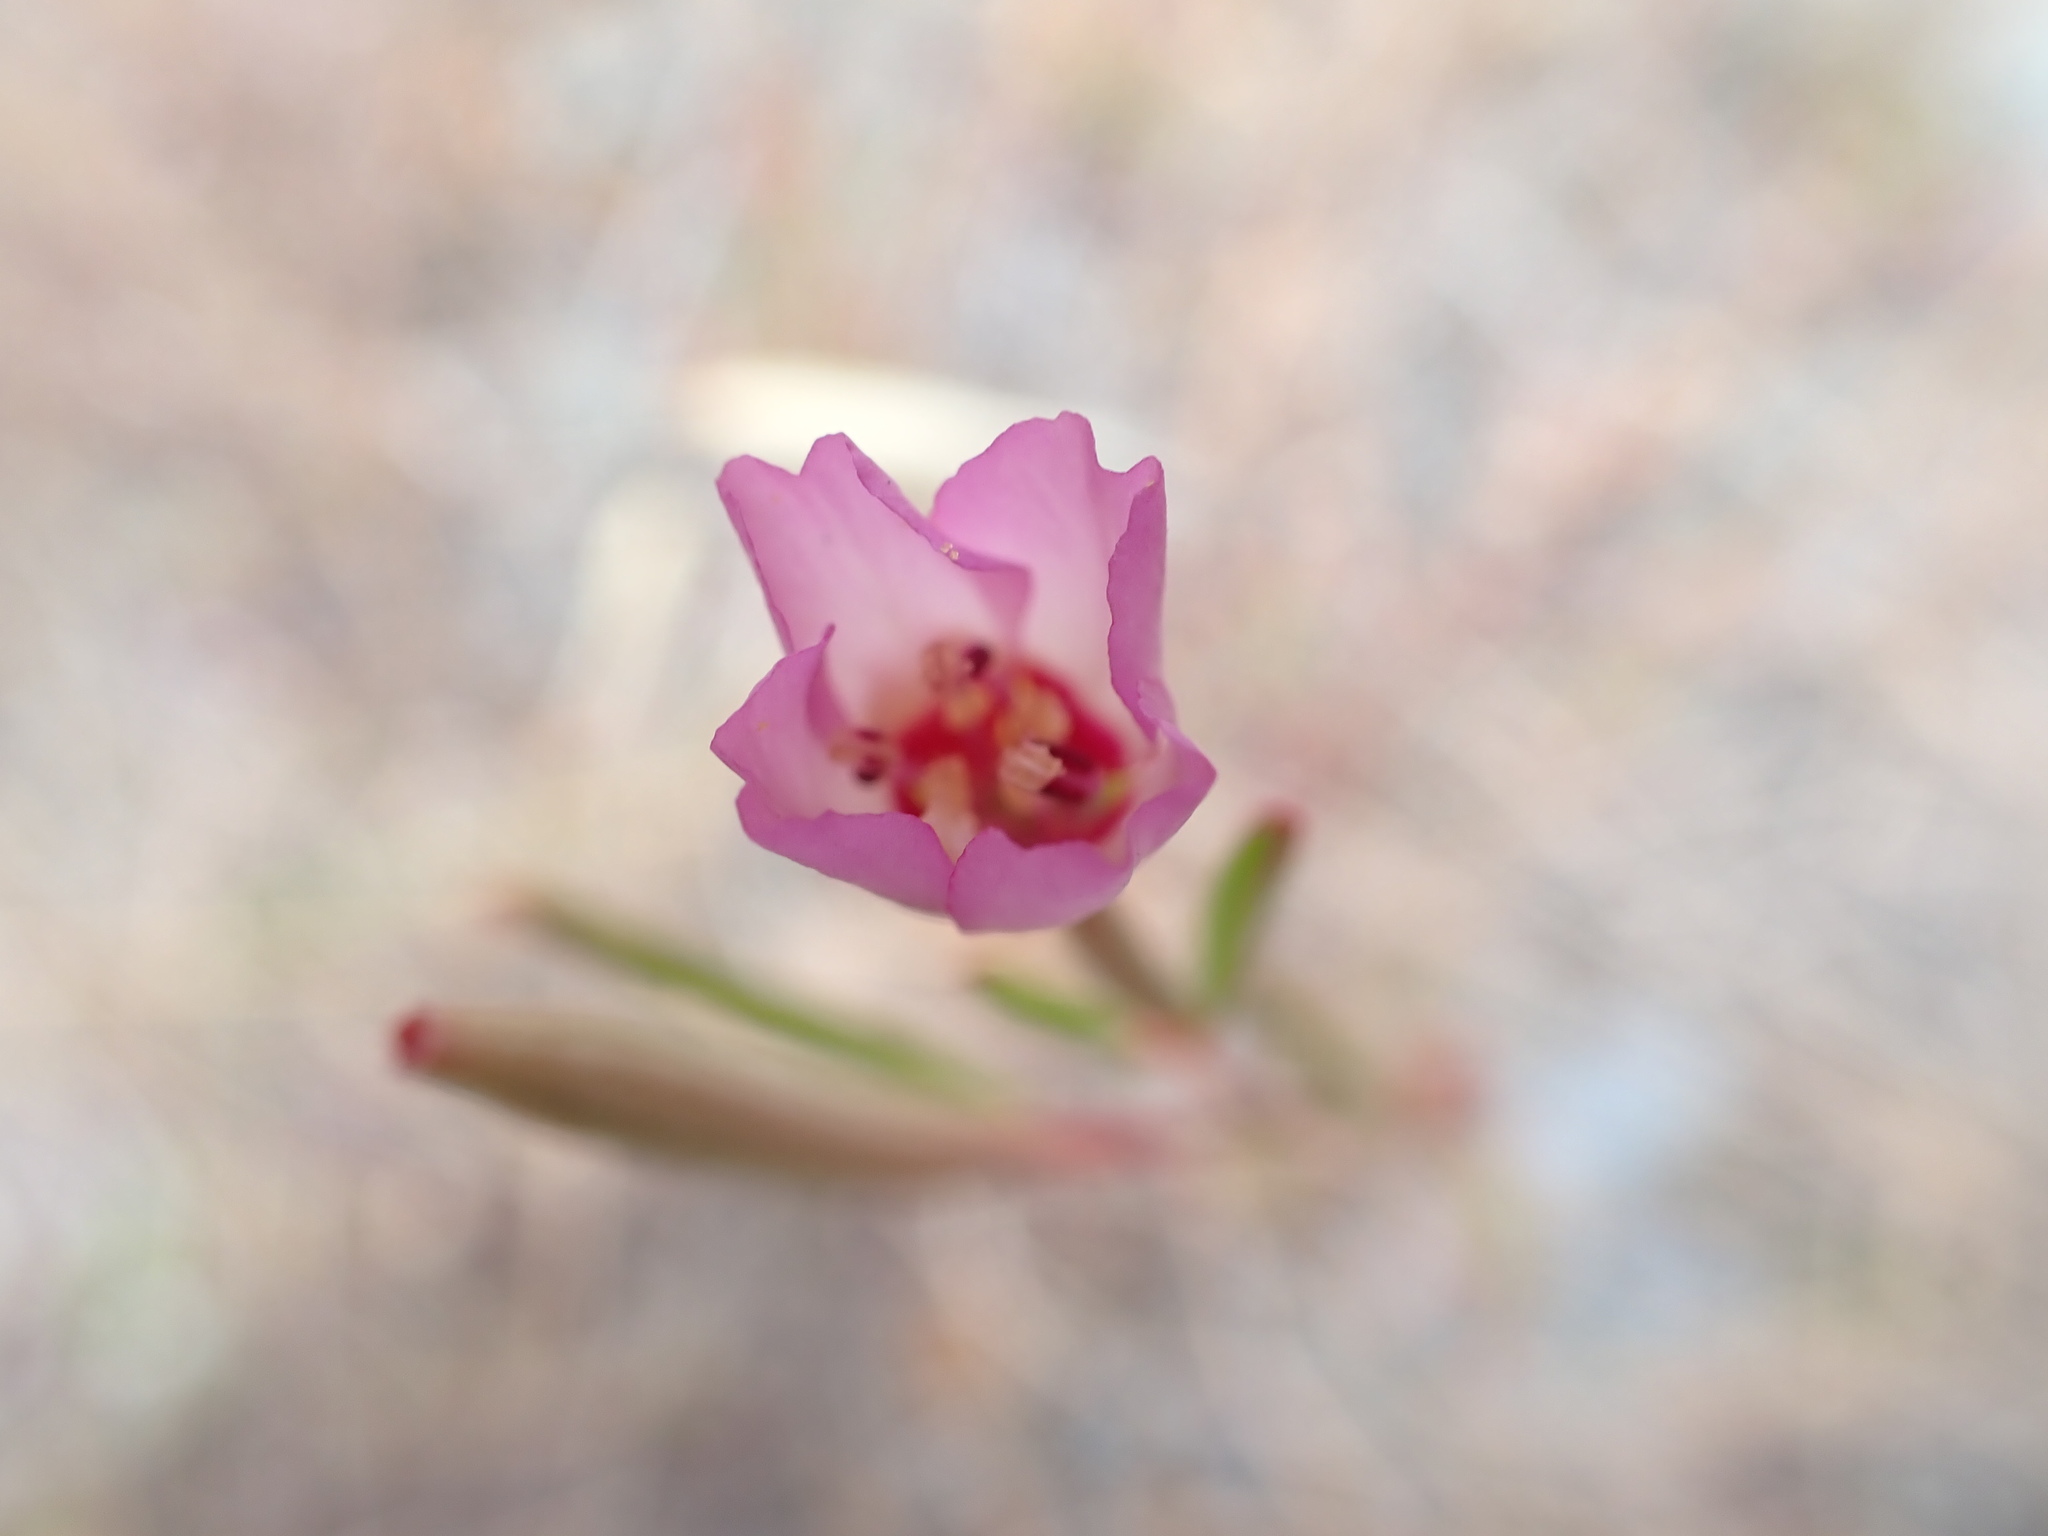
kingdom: Plantae
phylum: Tracheophyta
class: Magnoliopsida
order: Myrtales
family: Onagraceae
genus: Clarkia
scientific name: Clarkia franciscana
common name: Presidio clarkia
